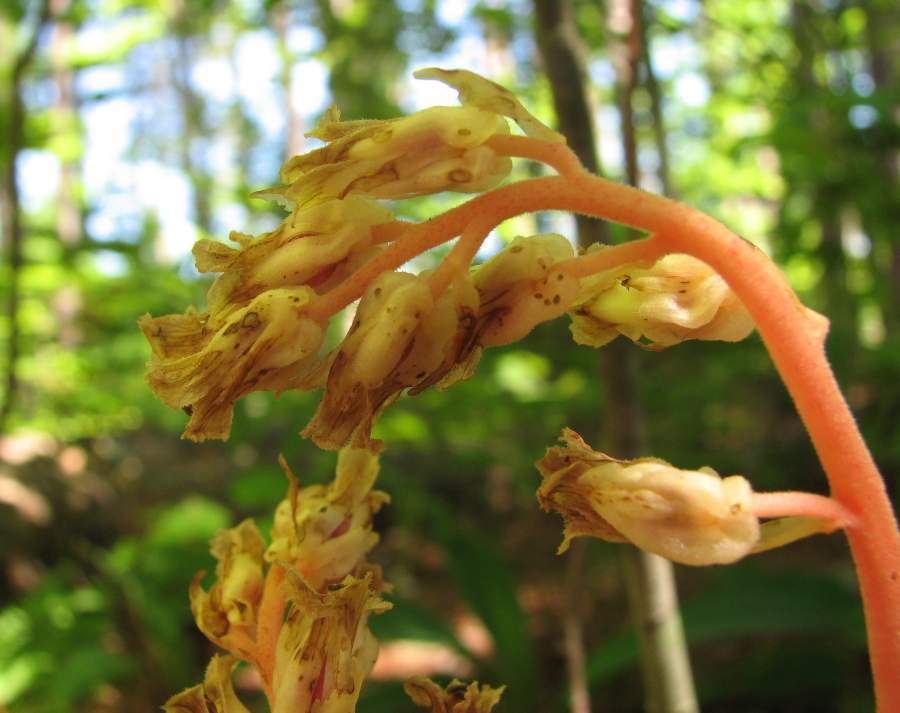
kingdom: Plantae
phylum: Tracheophyta
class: Magnoliopsida
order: Ericales
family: Ericaceae
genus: Hypopitys
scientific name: Hypopitys monotropa
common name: Yellow bird's-nest
